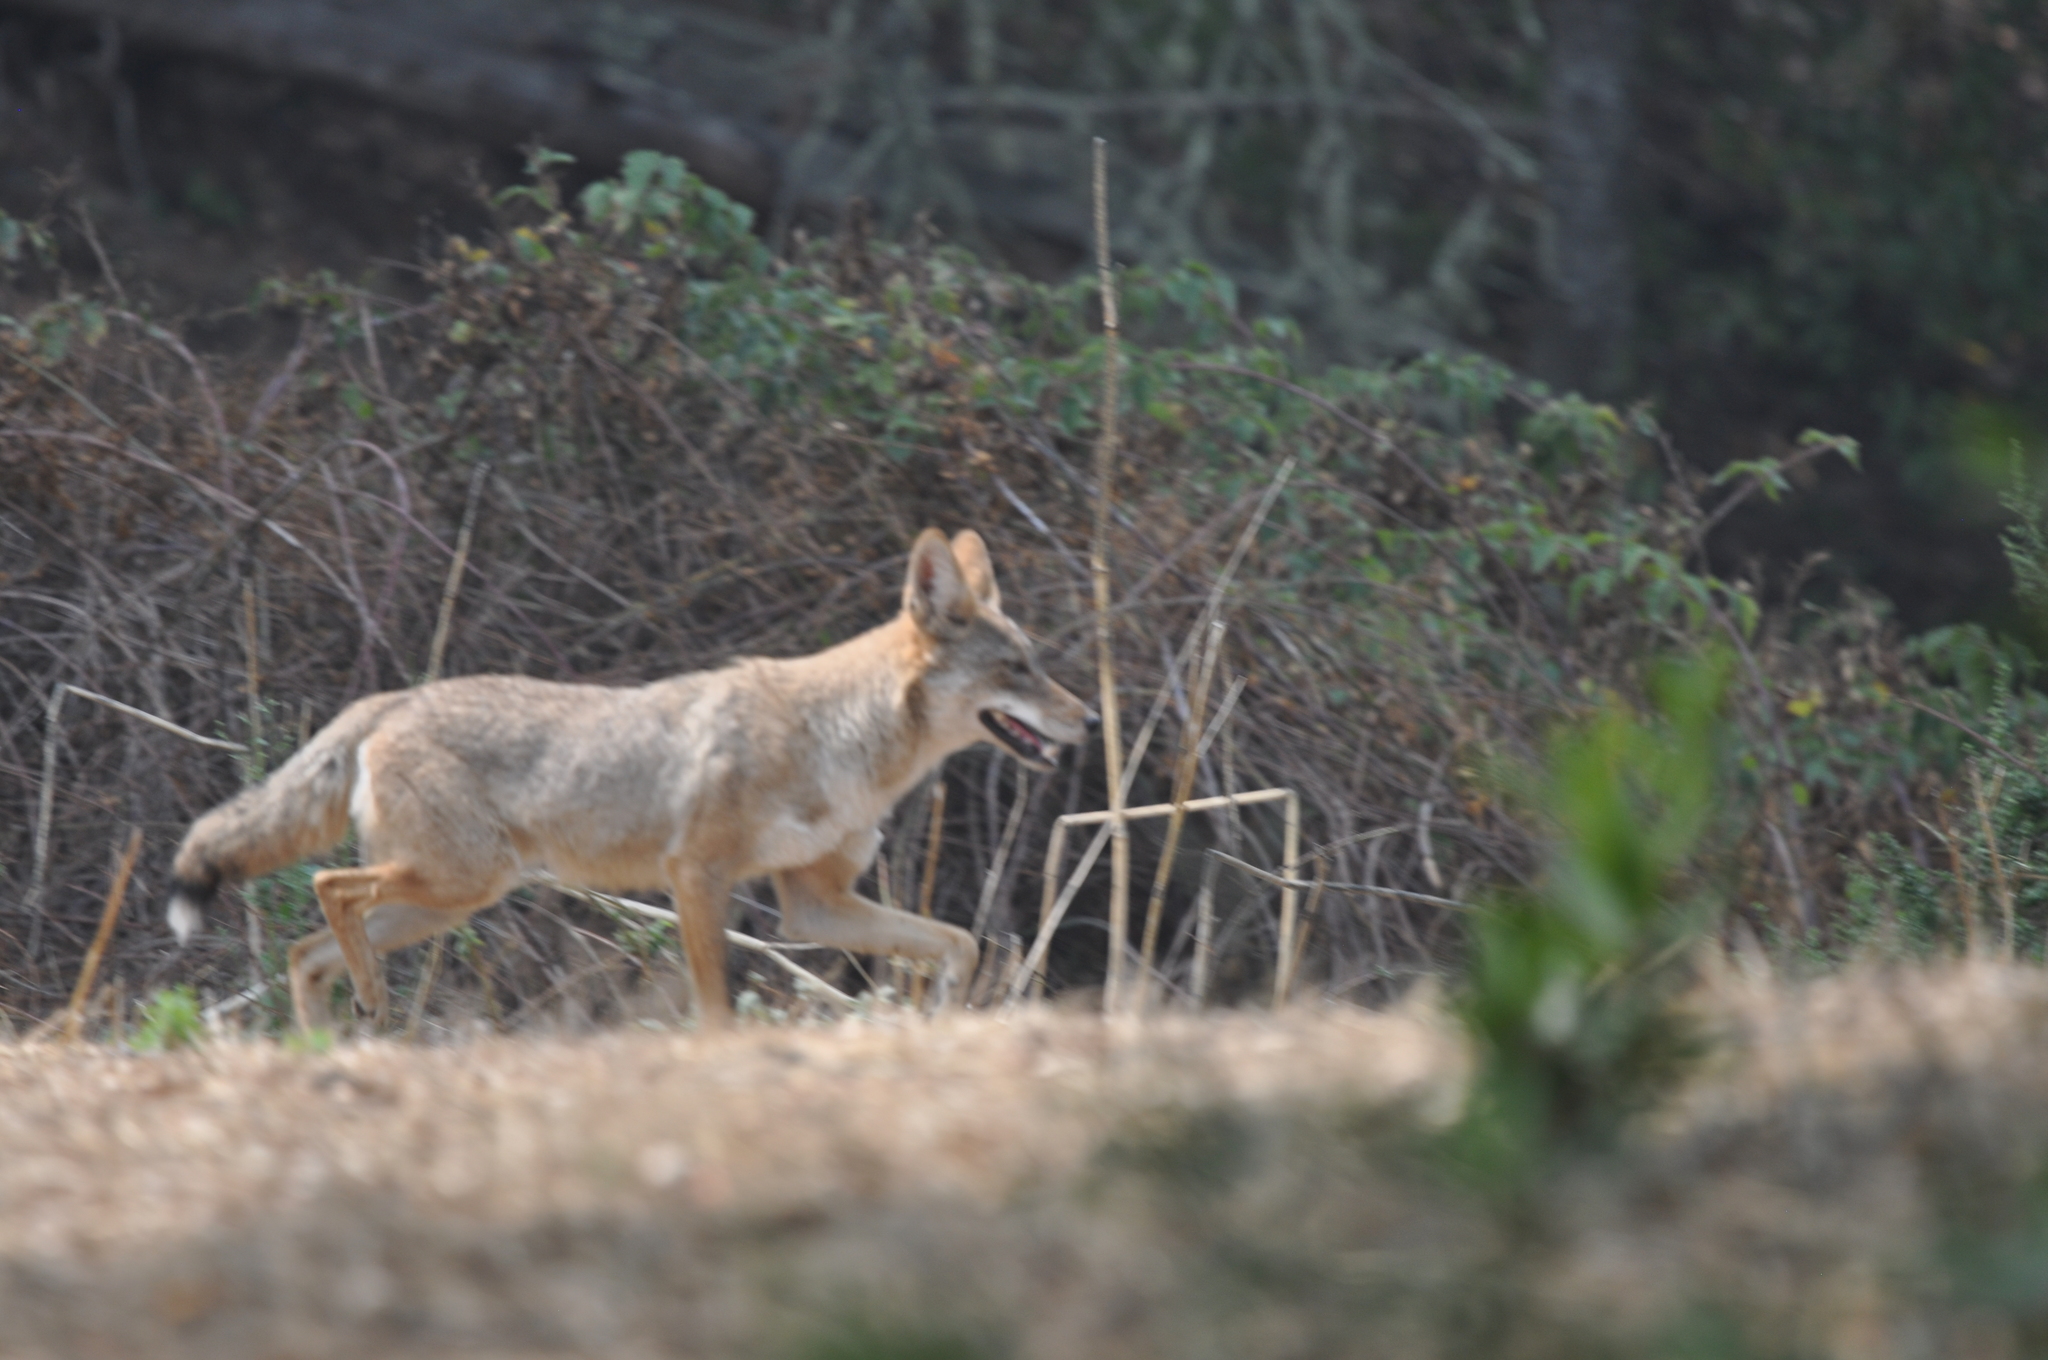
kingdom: Animalia
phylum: Chordata
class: Mammalia
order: Carnivora
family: Canidae
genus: Canis
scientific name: Canis latrans
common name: Coyote
